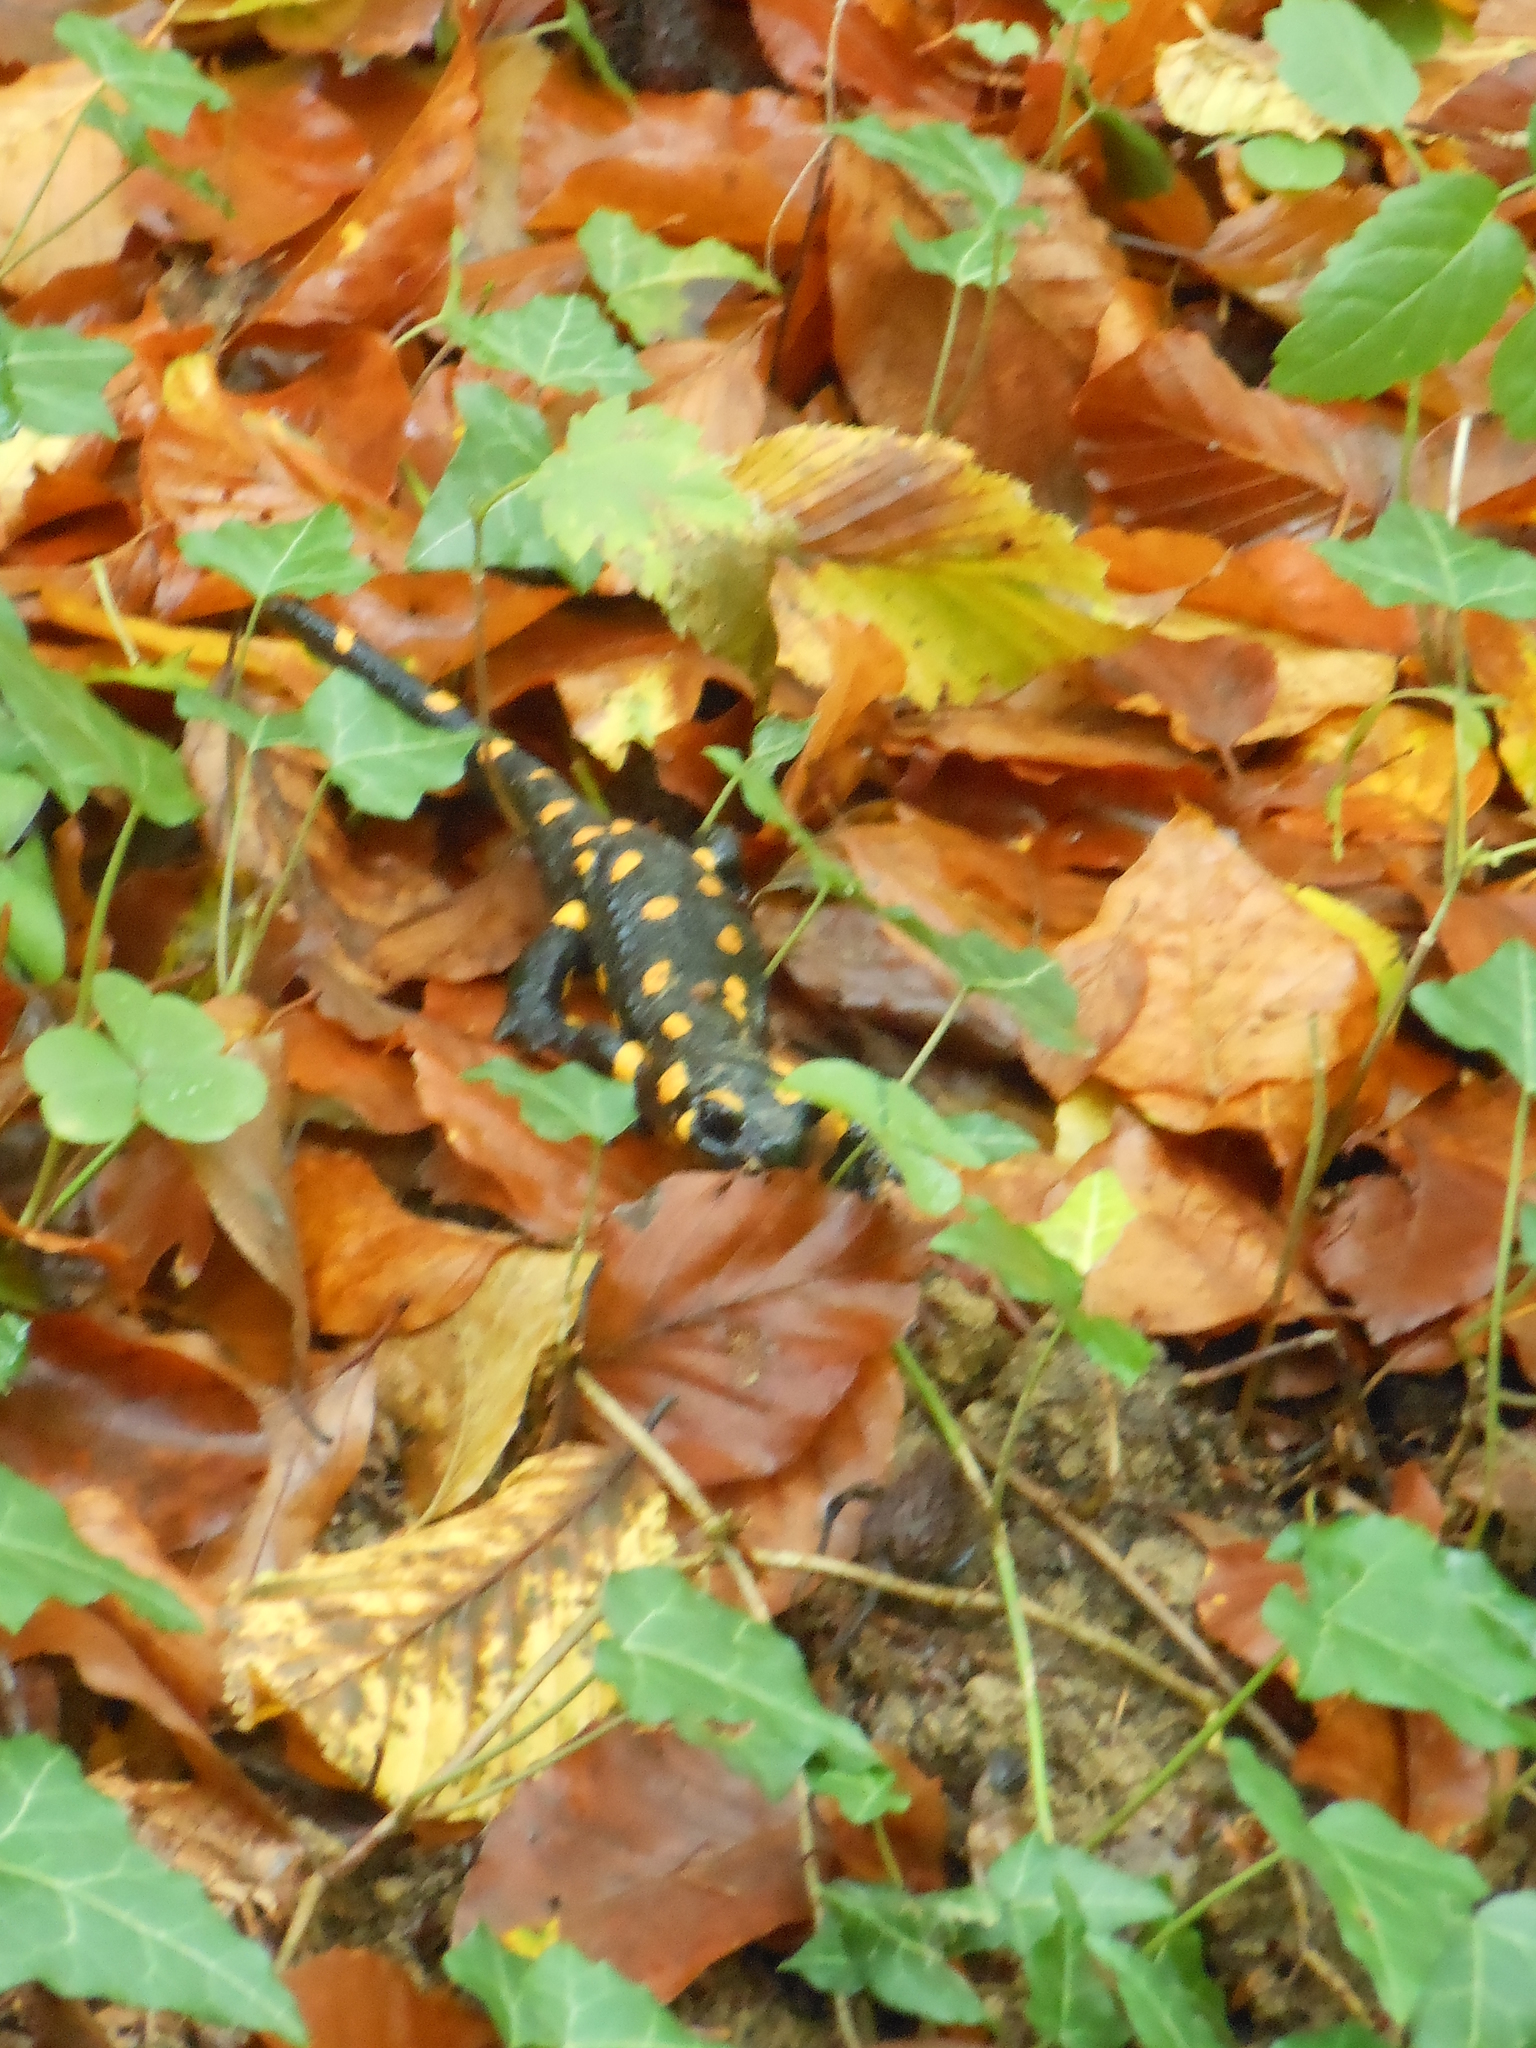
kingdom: Animalia
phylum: Chordata
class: Amphibia
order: Caudata
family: Salamandridae
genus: Salamandra
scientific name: Salamandra salamandra
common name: Fire salamander
